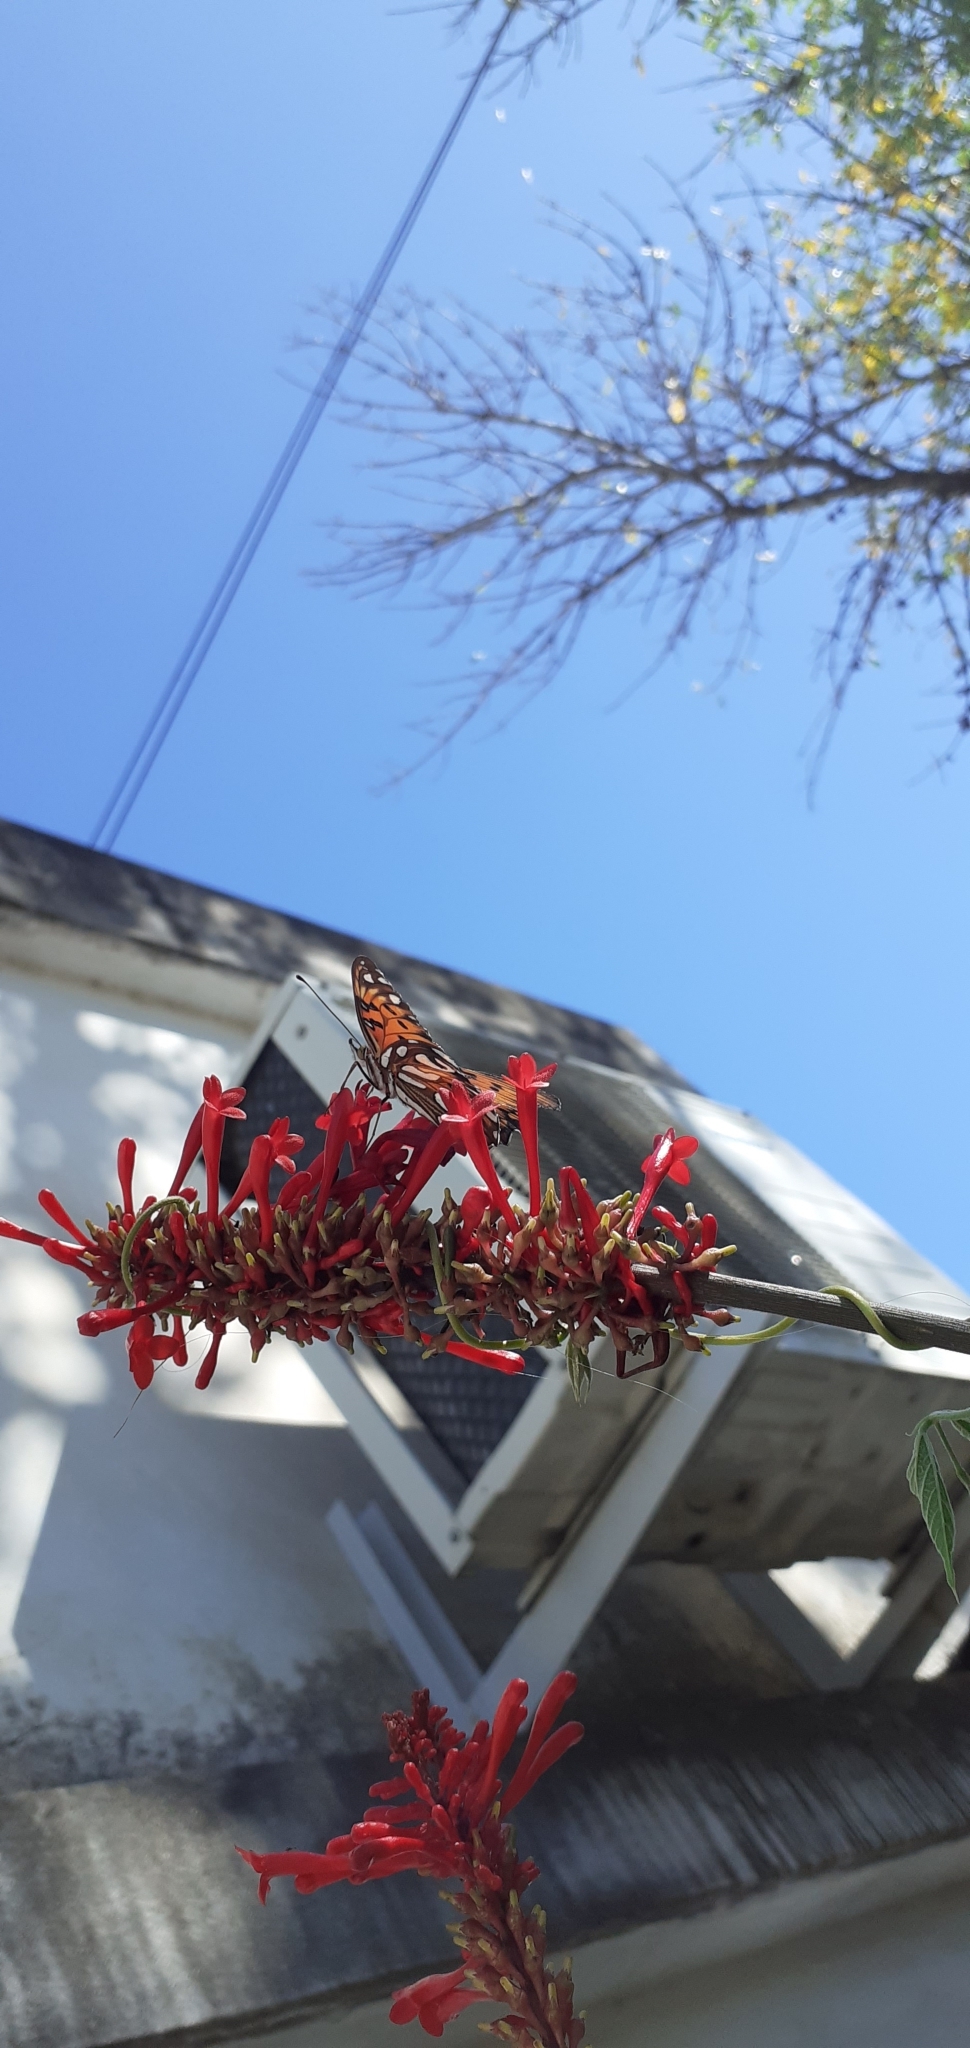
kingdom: Animalia
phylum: Arthropoda
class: Insecta
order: Lepidoptera
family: Nymphalidae
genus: Dione
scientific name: Dione vanillae
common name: Gulf fritillary
